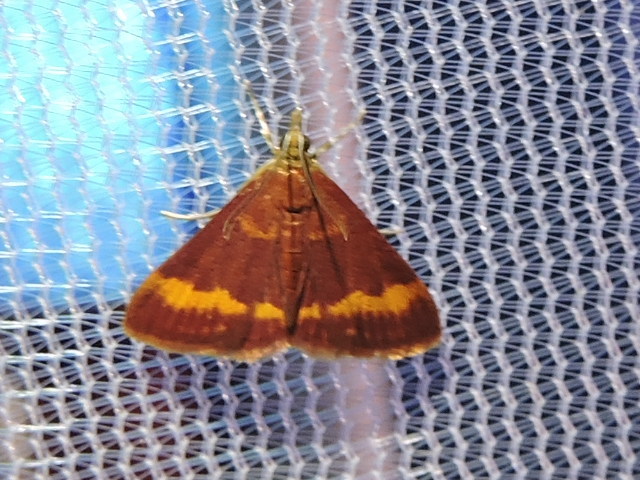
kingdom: Animalia
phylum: Arthropoda
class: Insecta
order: Lepidoptera
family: Crambidae
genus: Pyrausta
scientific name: Pyrausta pseuderosnealis
